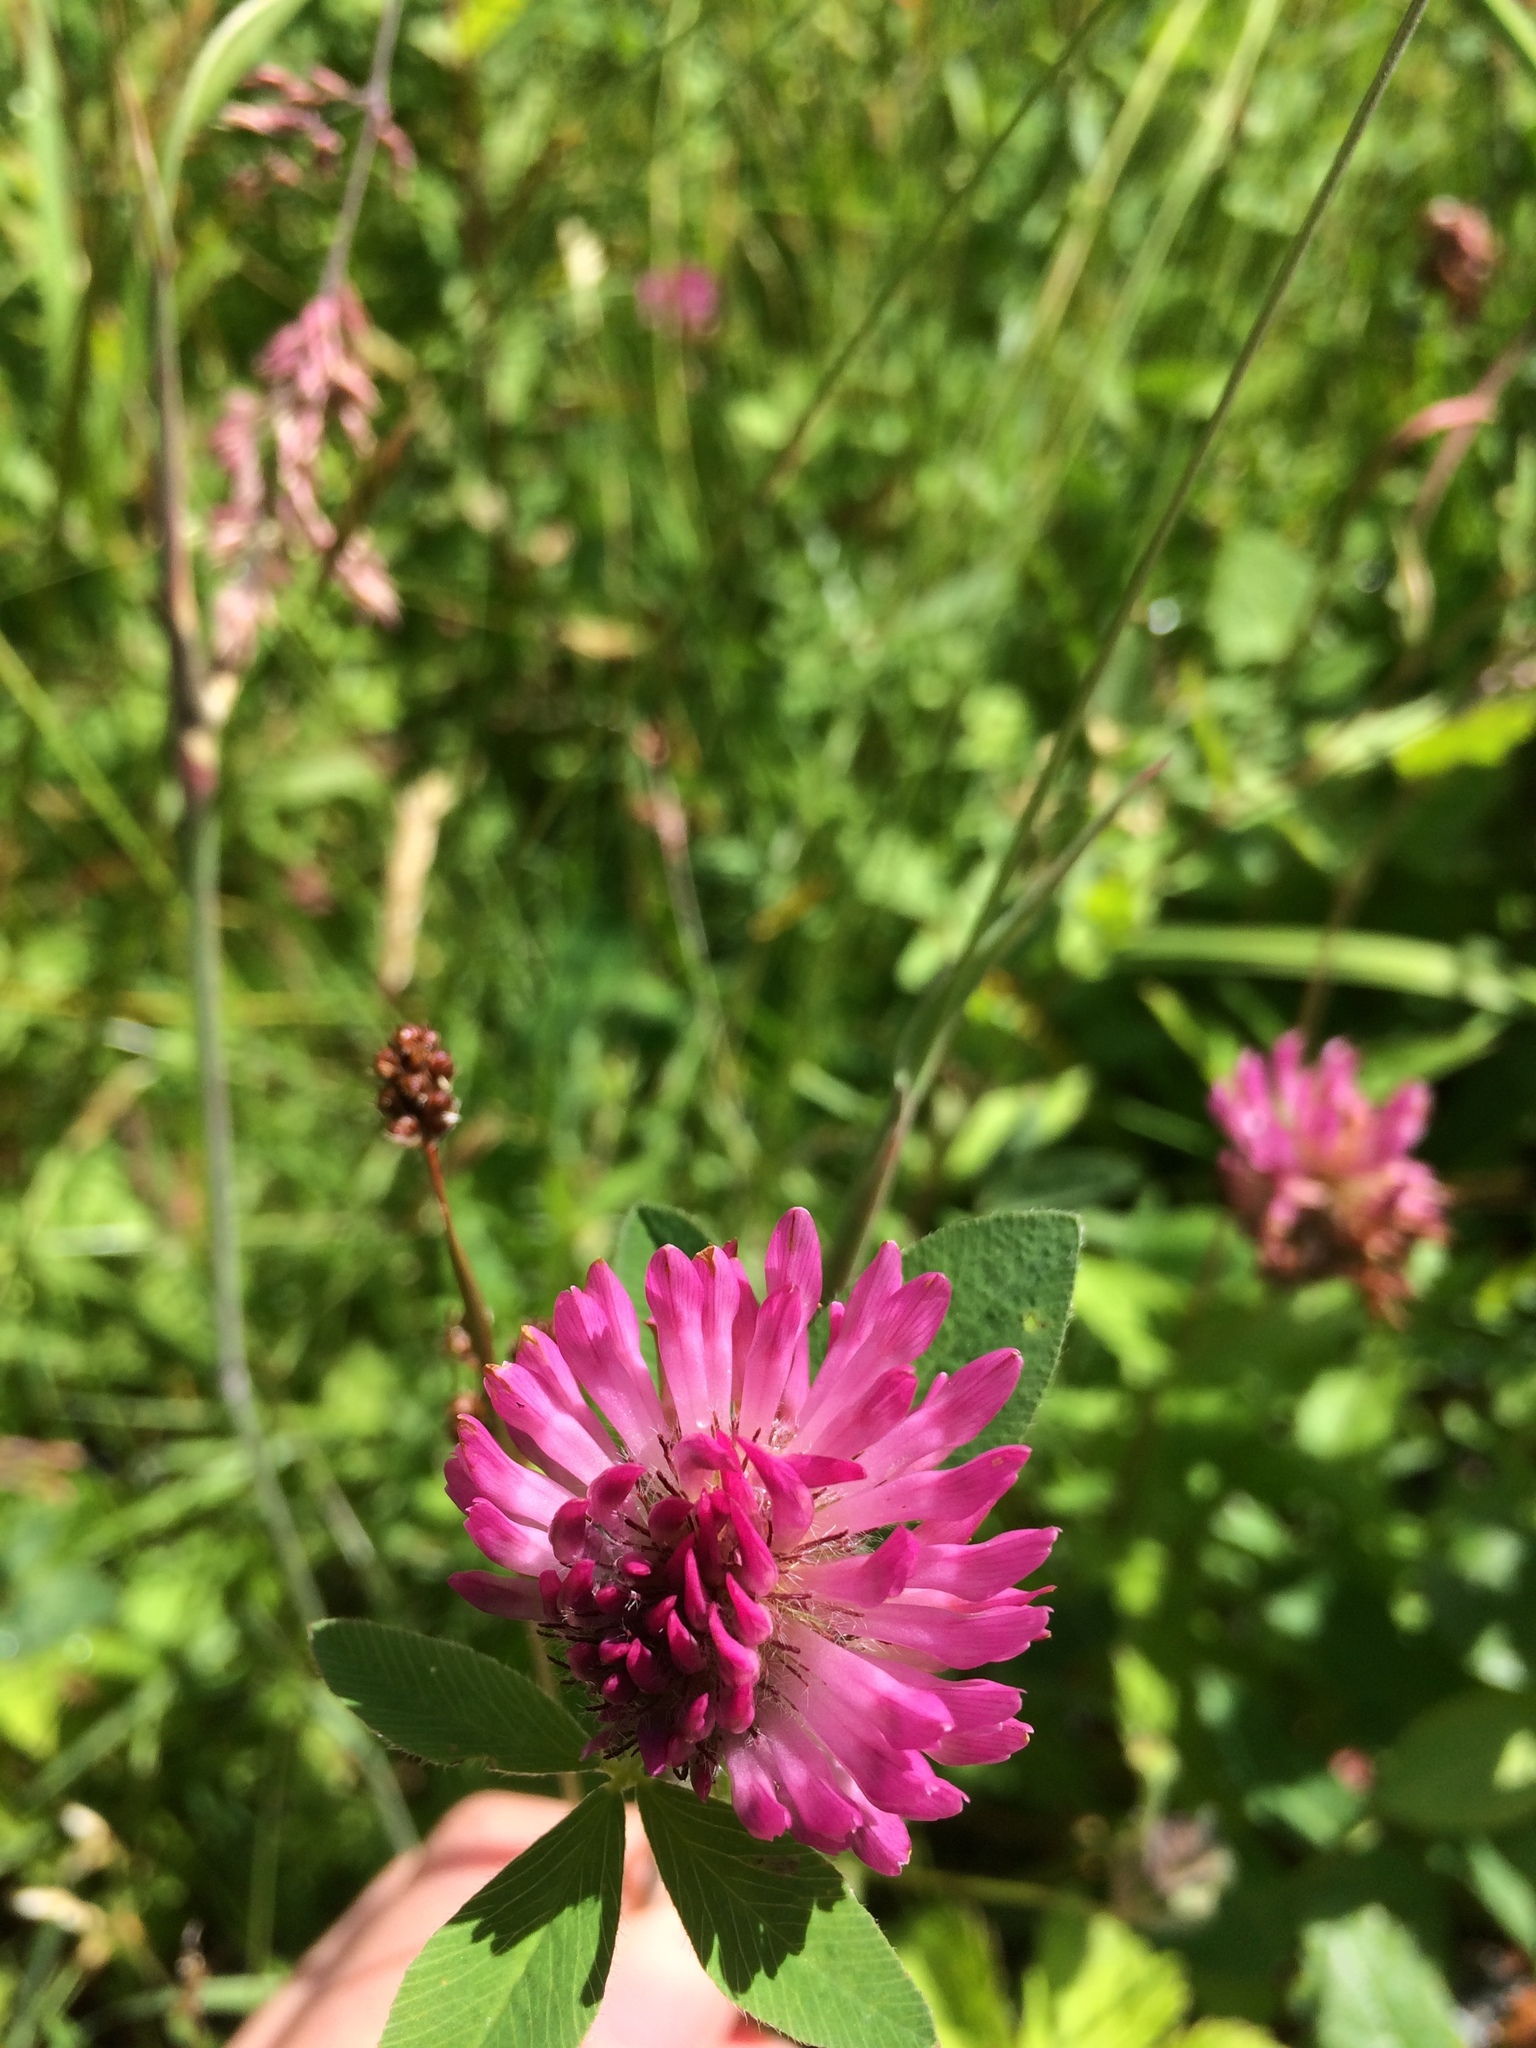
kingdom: Plantae
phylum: Tracheophyta
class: Magnoliopsida
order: Fabales
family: Fabaceae
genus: Trifolium
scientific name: Trifolium pratense
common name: Red clover
